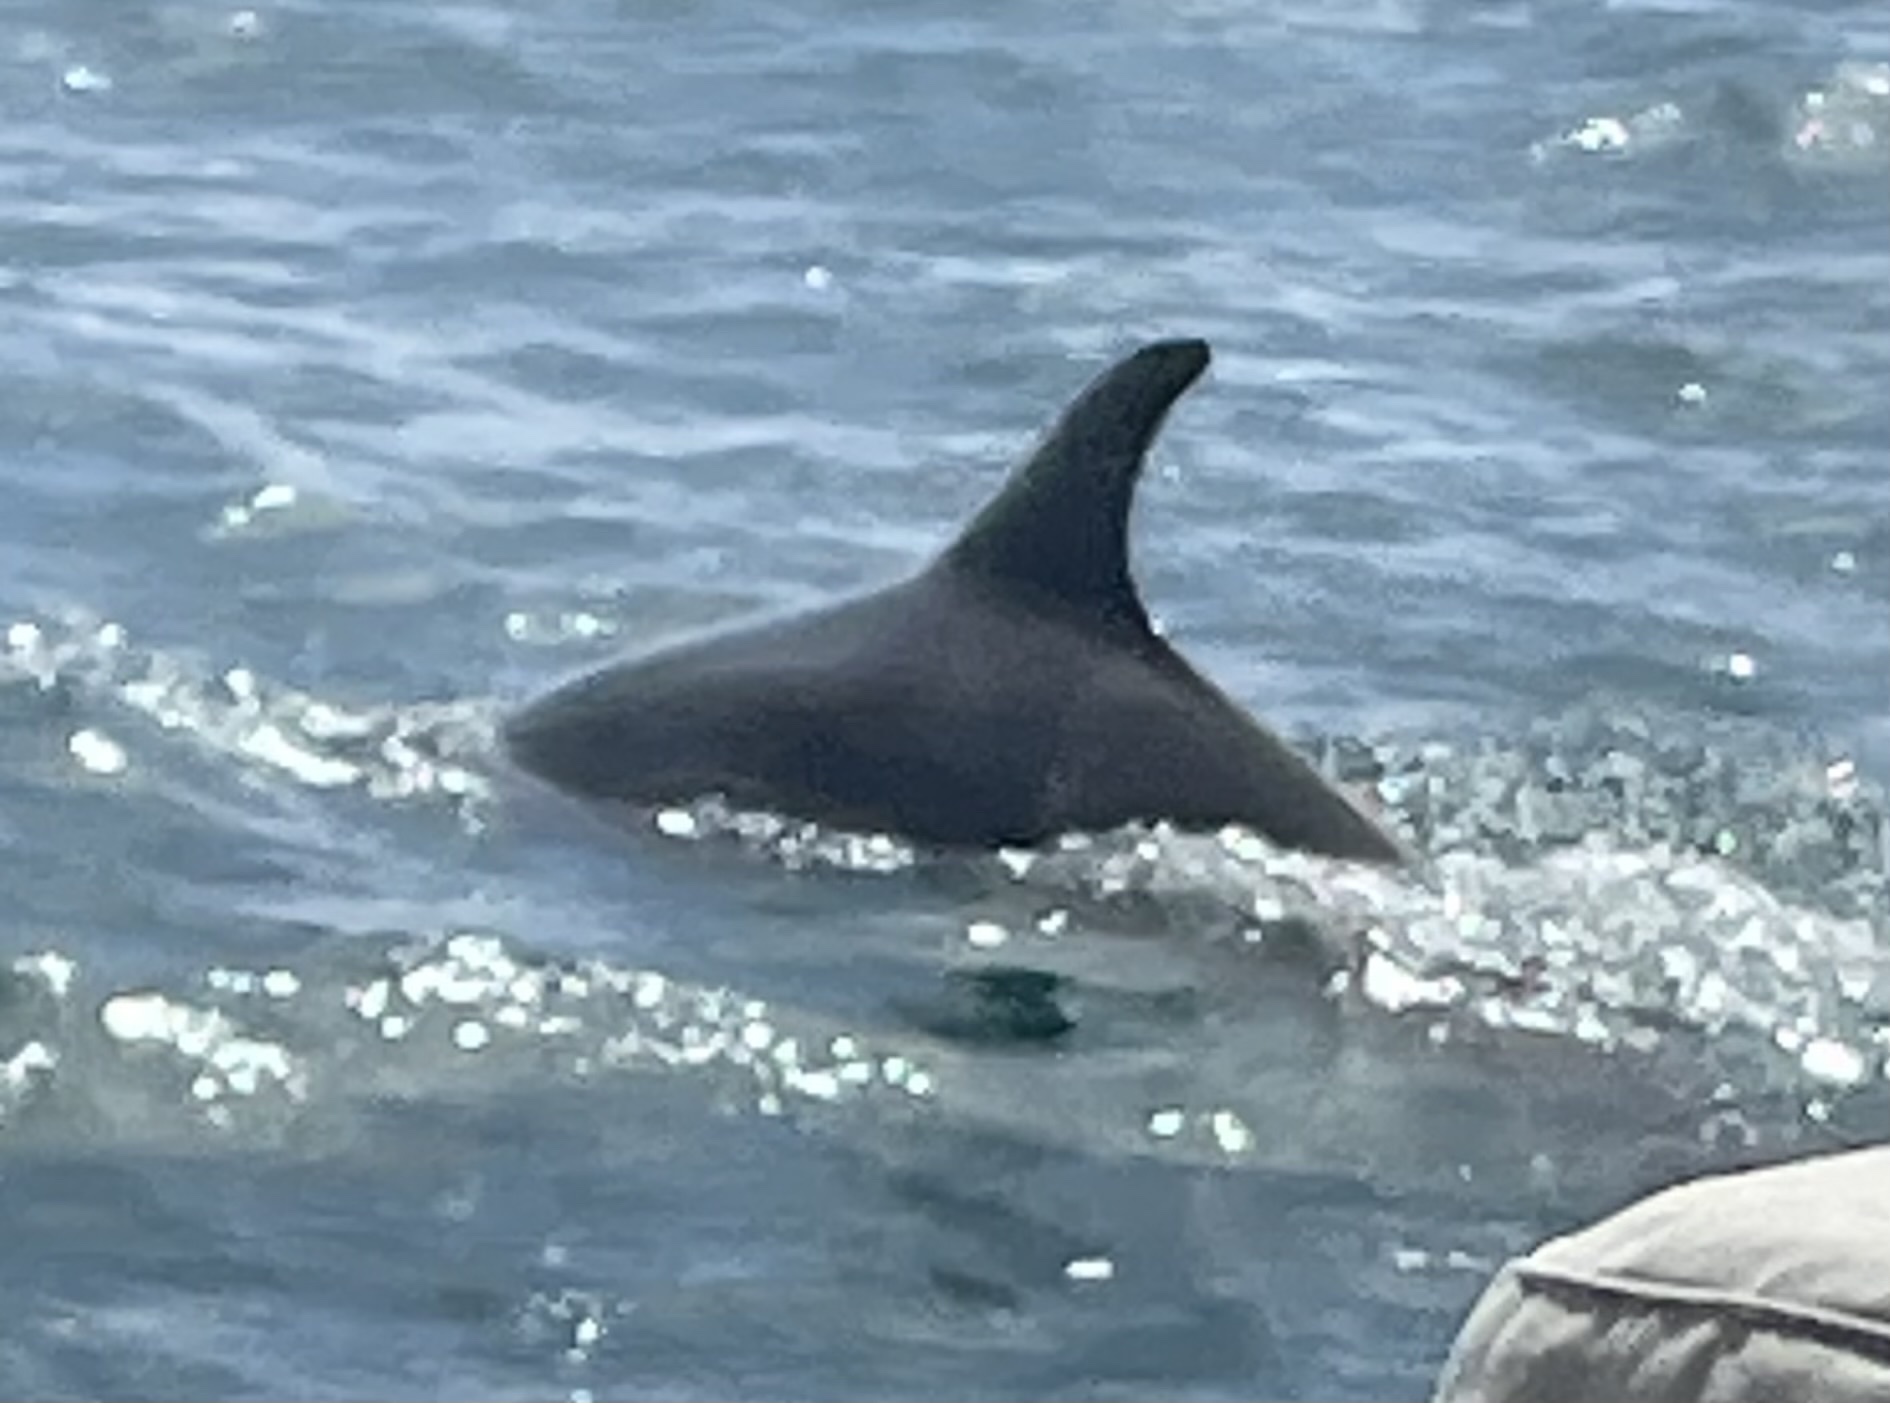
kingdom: Animalia
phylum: Chordata
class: Mammalia
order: Cetacea
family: Delphinidae
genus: Tursiops
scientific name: Tursiops truncatus
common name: Bottlenose dolphin
